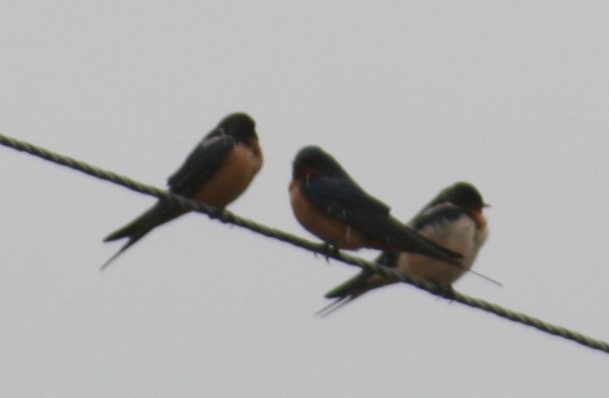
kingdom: Animalia
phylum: Chordata
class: Aves
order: Passeriformes
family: Hirundinidae
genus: Hirundo
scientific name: Hirundo rustica
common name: Barn swallow
